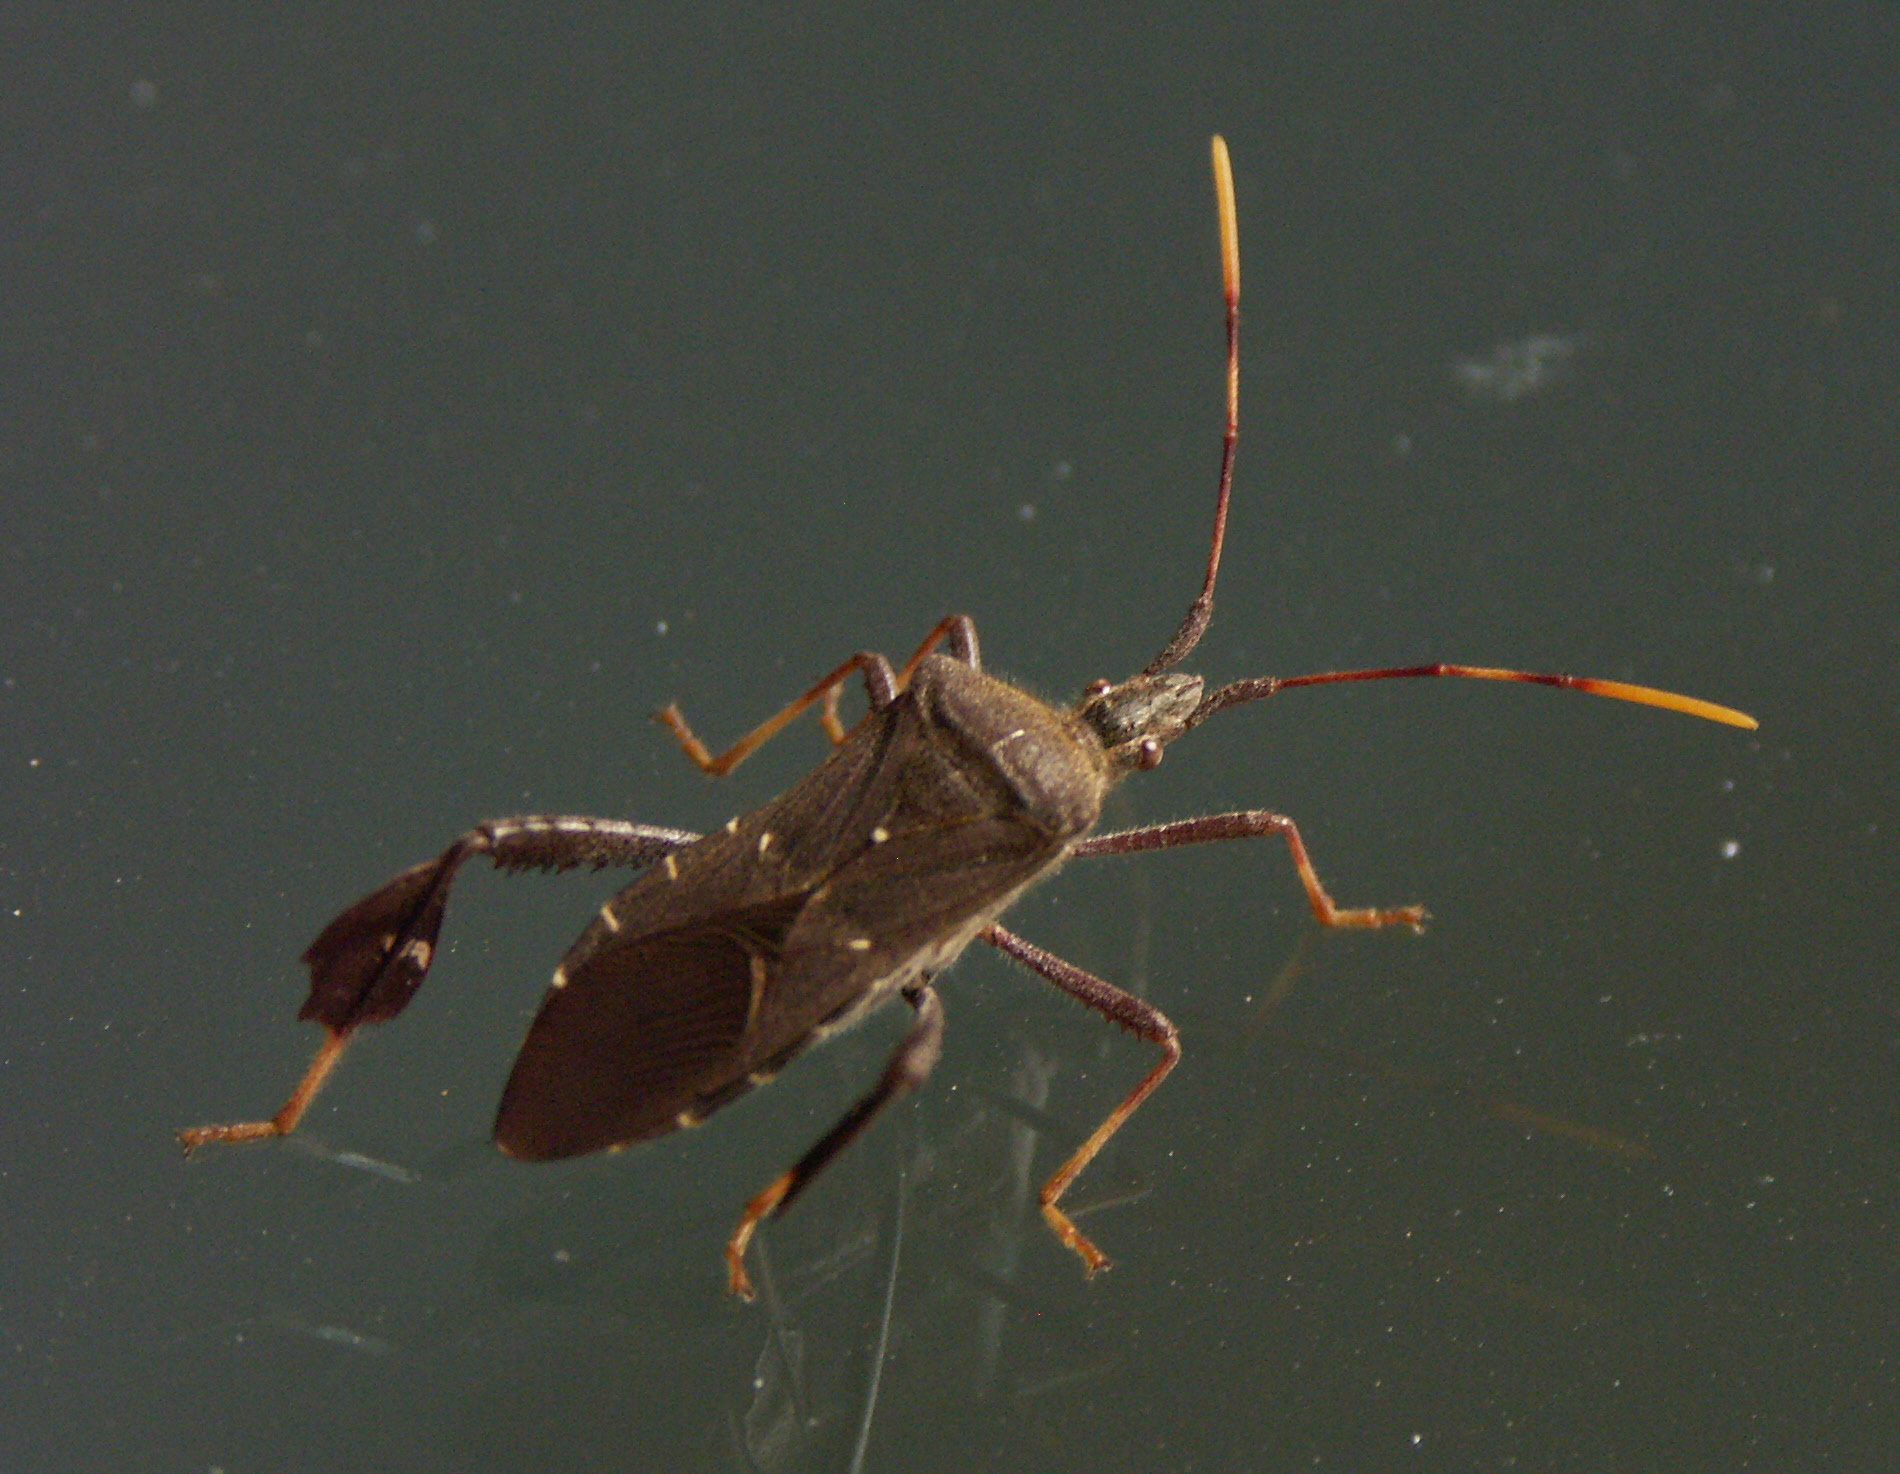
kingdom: Animalia
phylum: Arthropoda
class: Insecta
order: Hemiptera
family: Coreidae
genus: Leptoglossus
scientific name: Leptoglossus oppositus
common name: Northern leaf-footed bug
